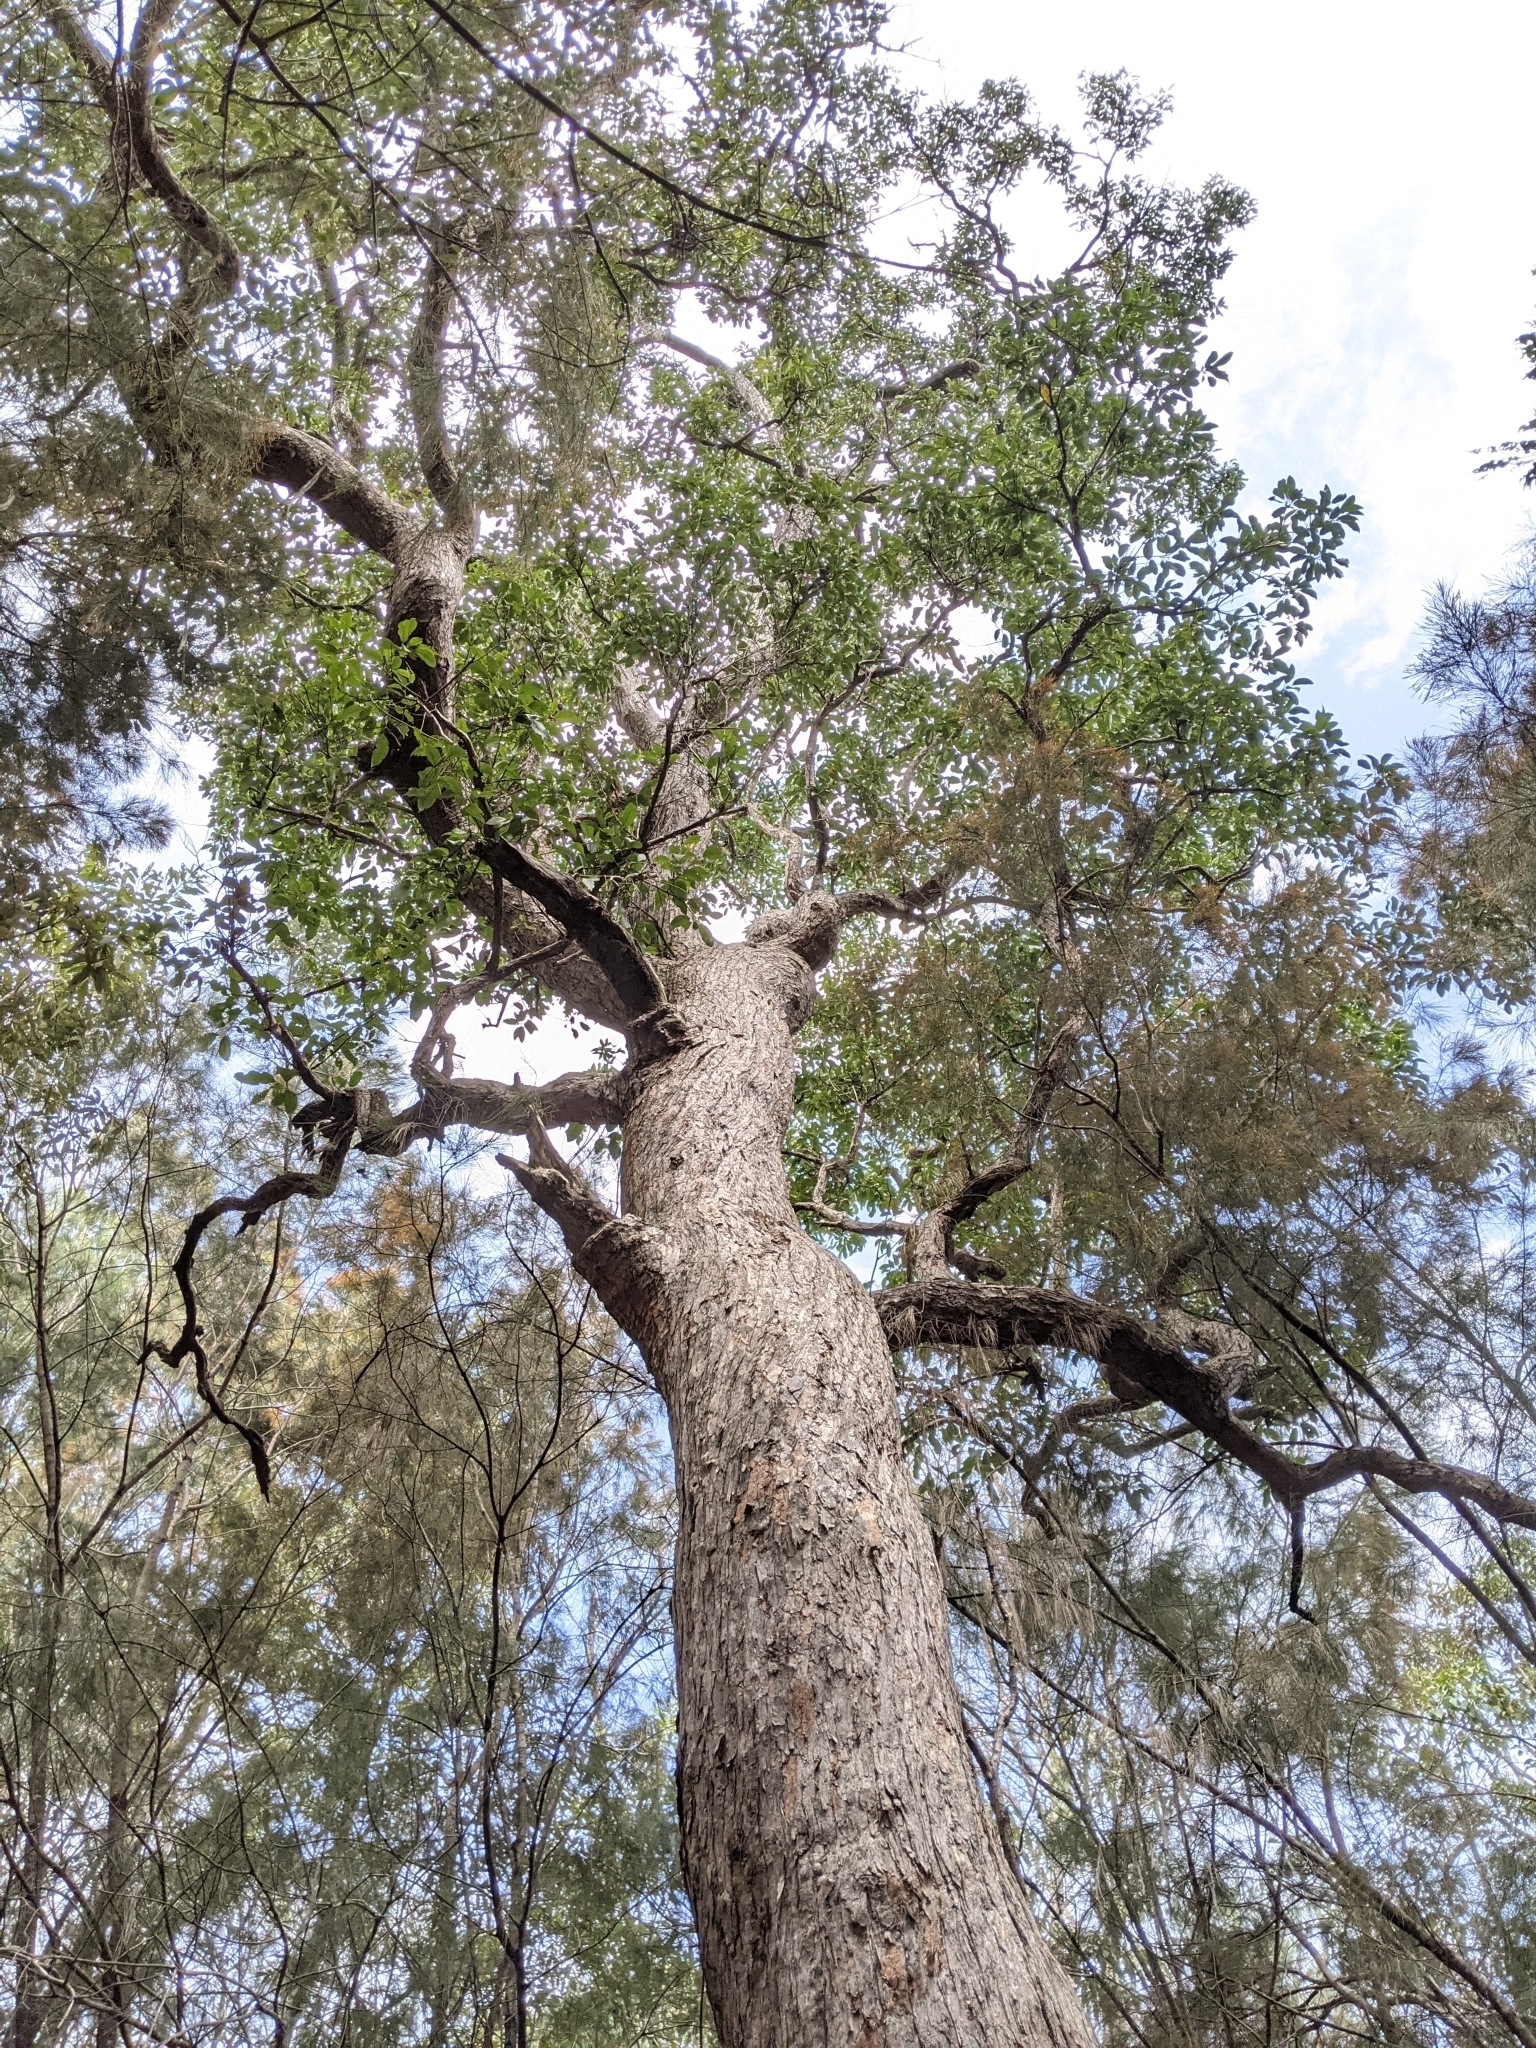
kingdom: Plantae
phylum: Tracheophyta
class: Magnoliopsida
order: Myrtales
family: Myrtaceae
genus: Lophostemon
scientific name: Lophostemon suaveolens
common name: Paperbark-mahogany
